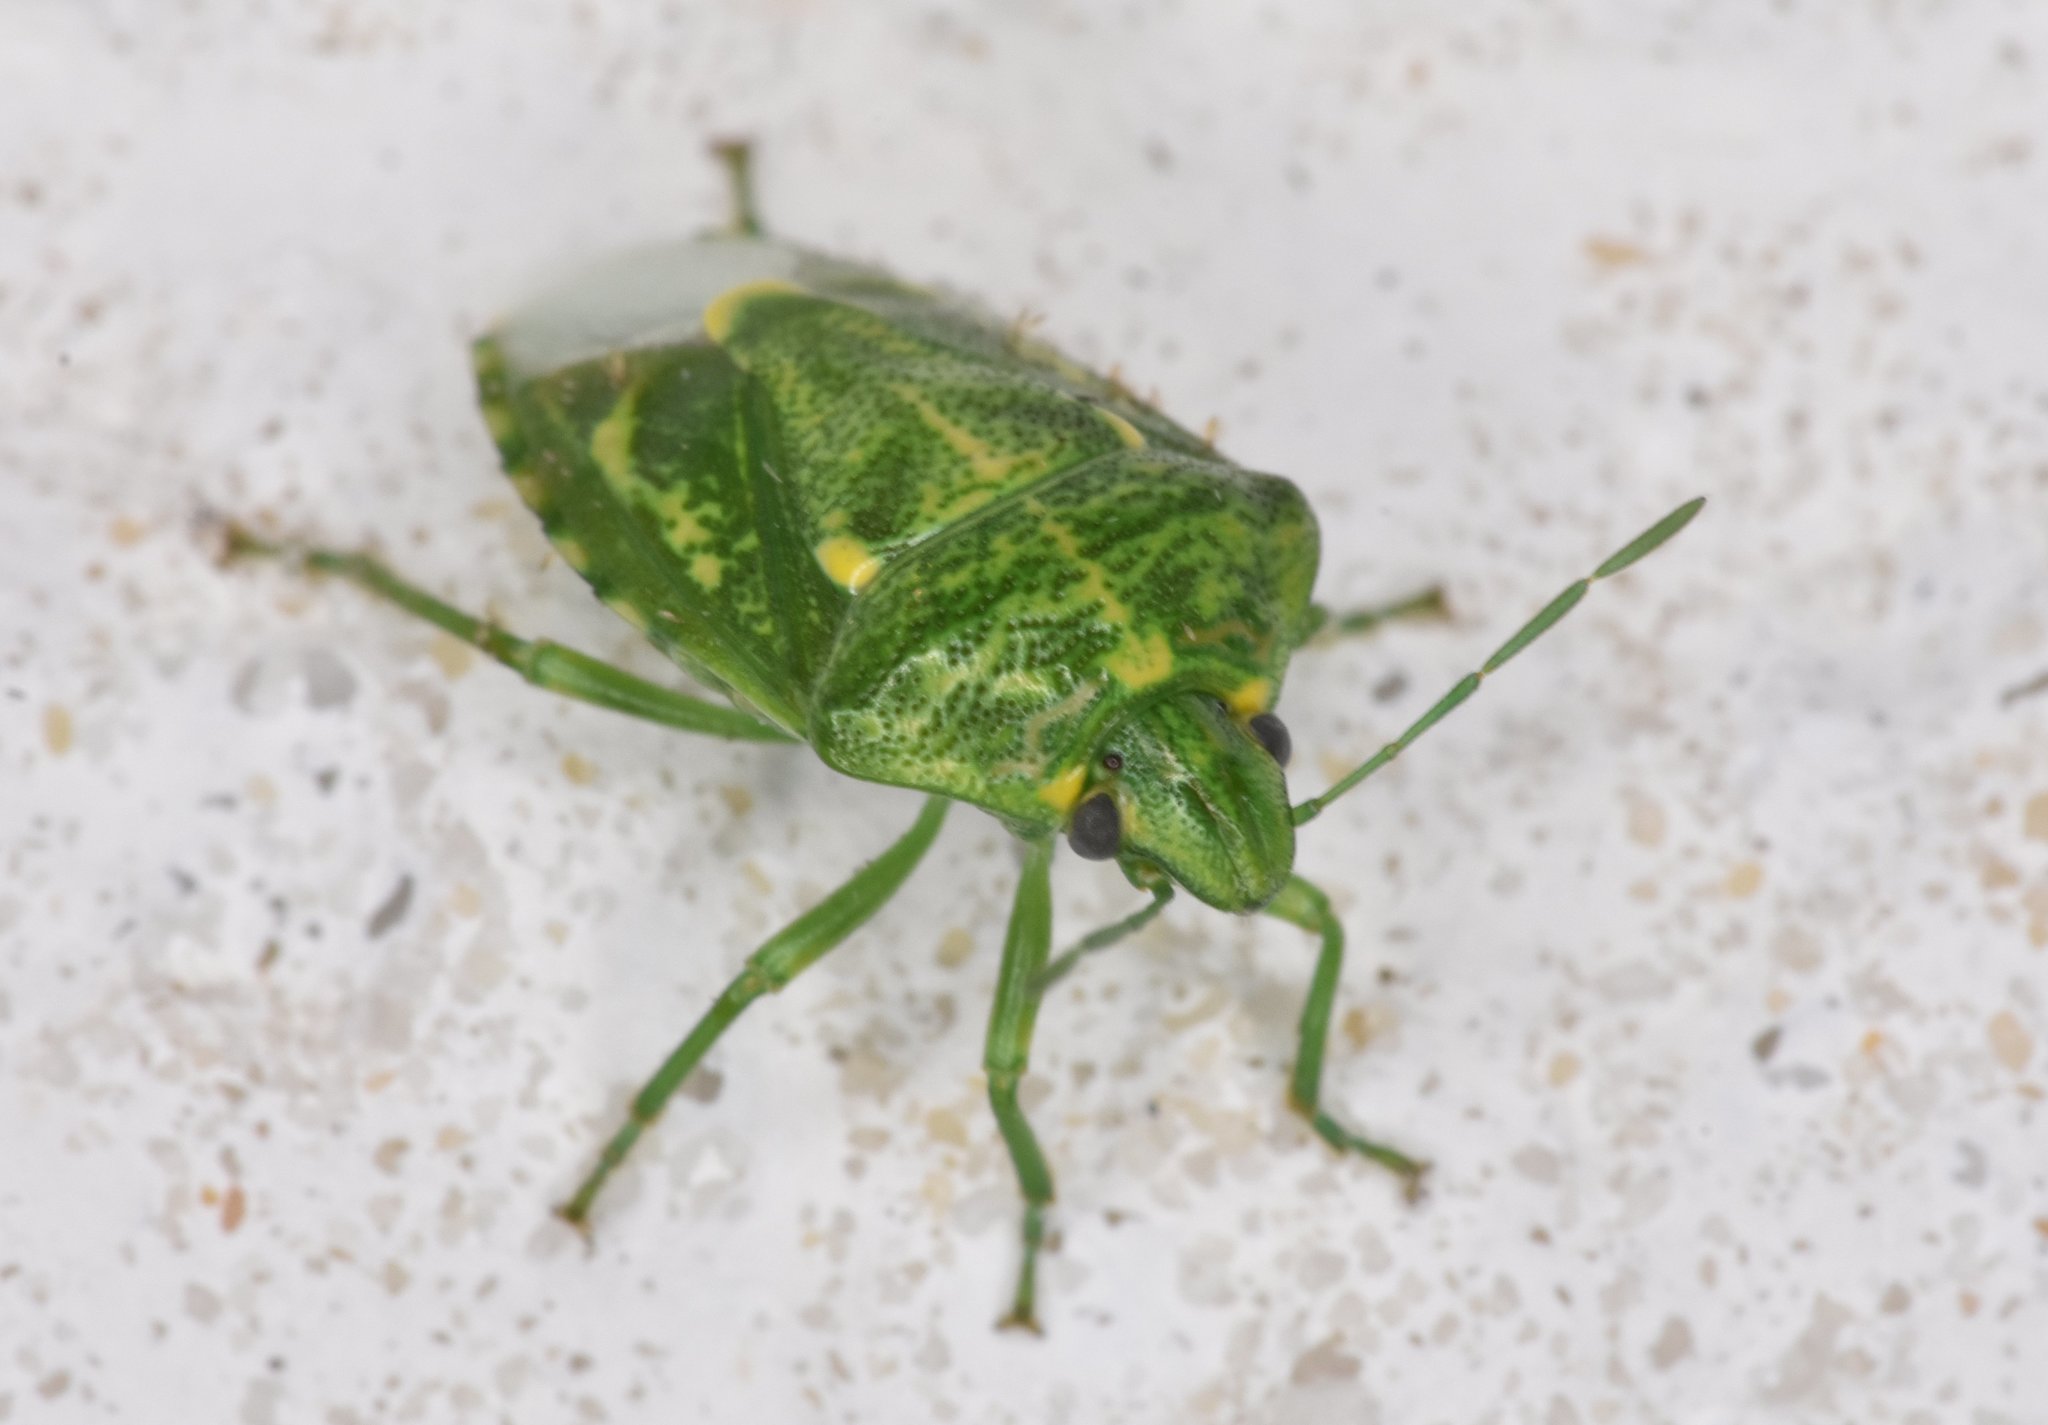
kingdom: Animalia
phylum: Arthropoda
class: Insecta
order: Hemiptera
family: Pentatomidae
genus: Banasa
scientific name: Banasa euchlora
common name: Cedar berry bug
